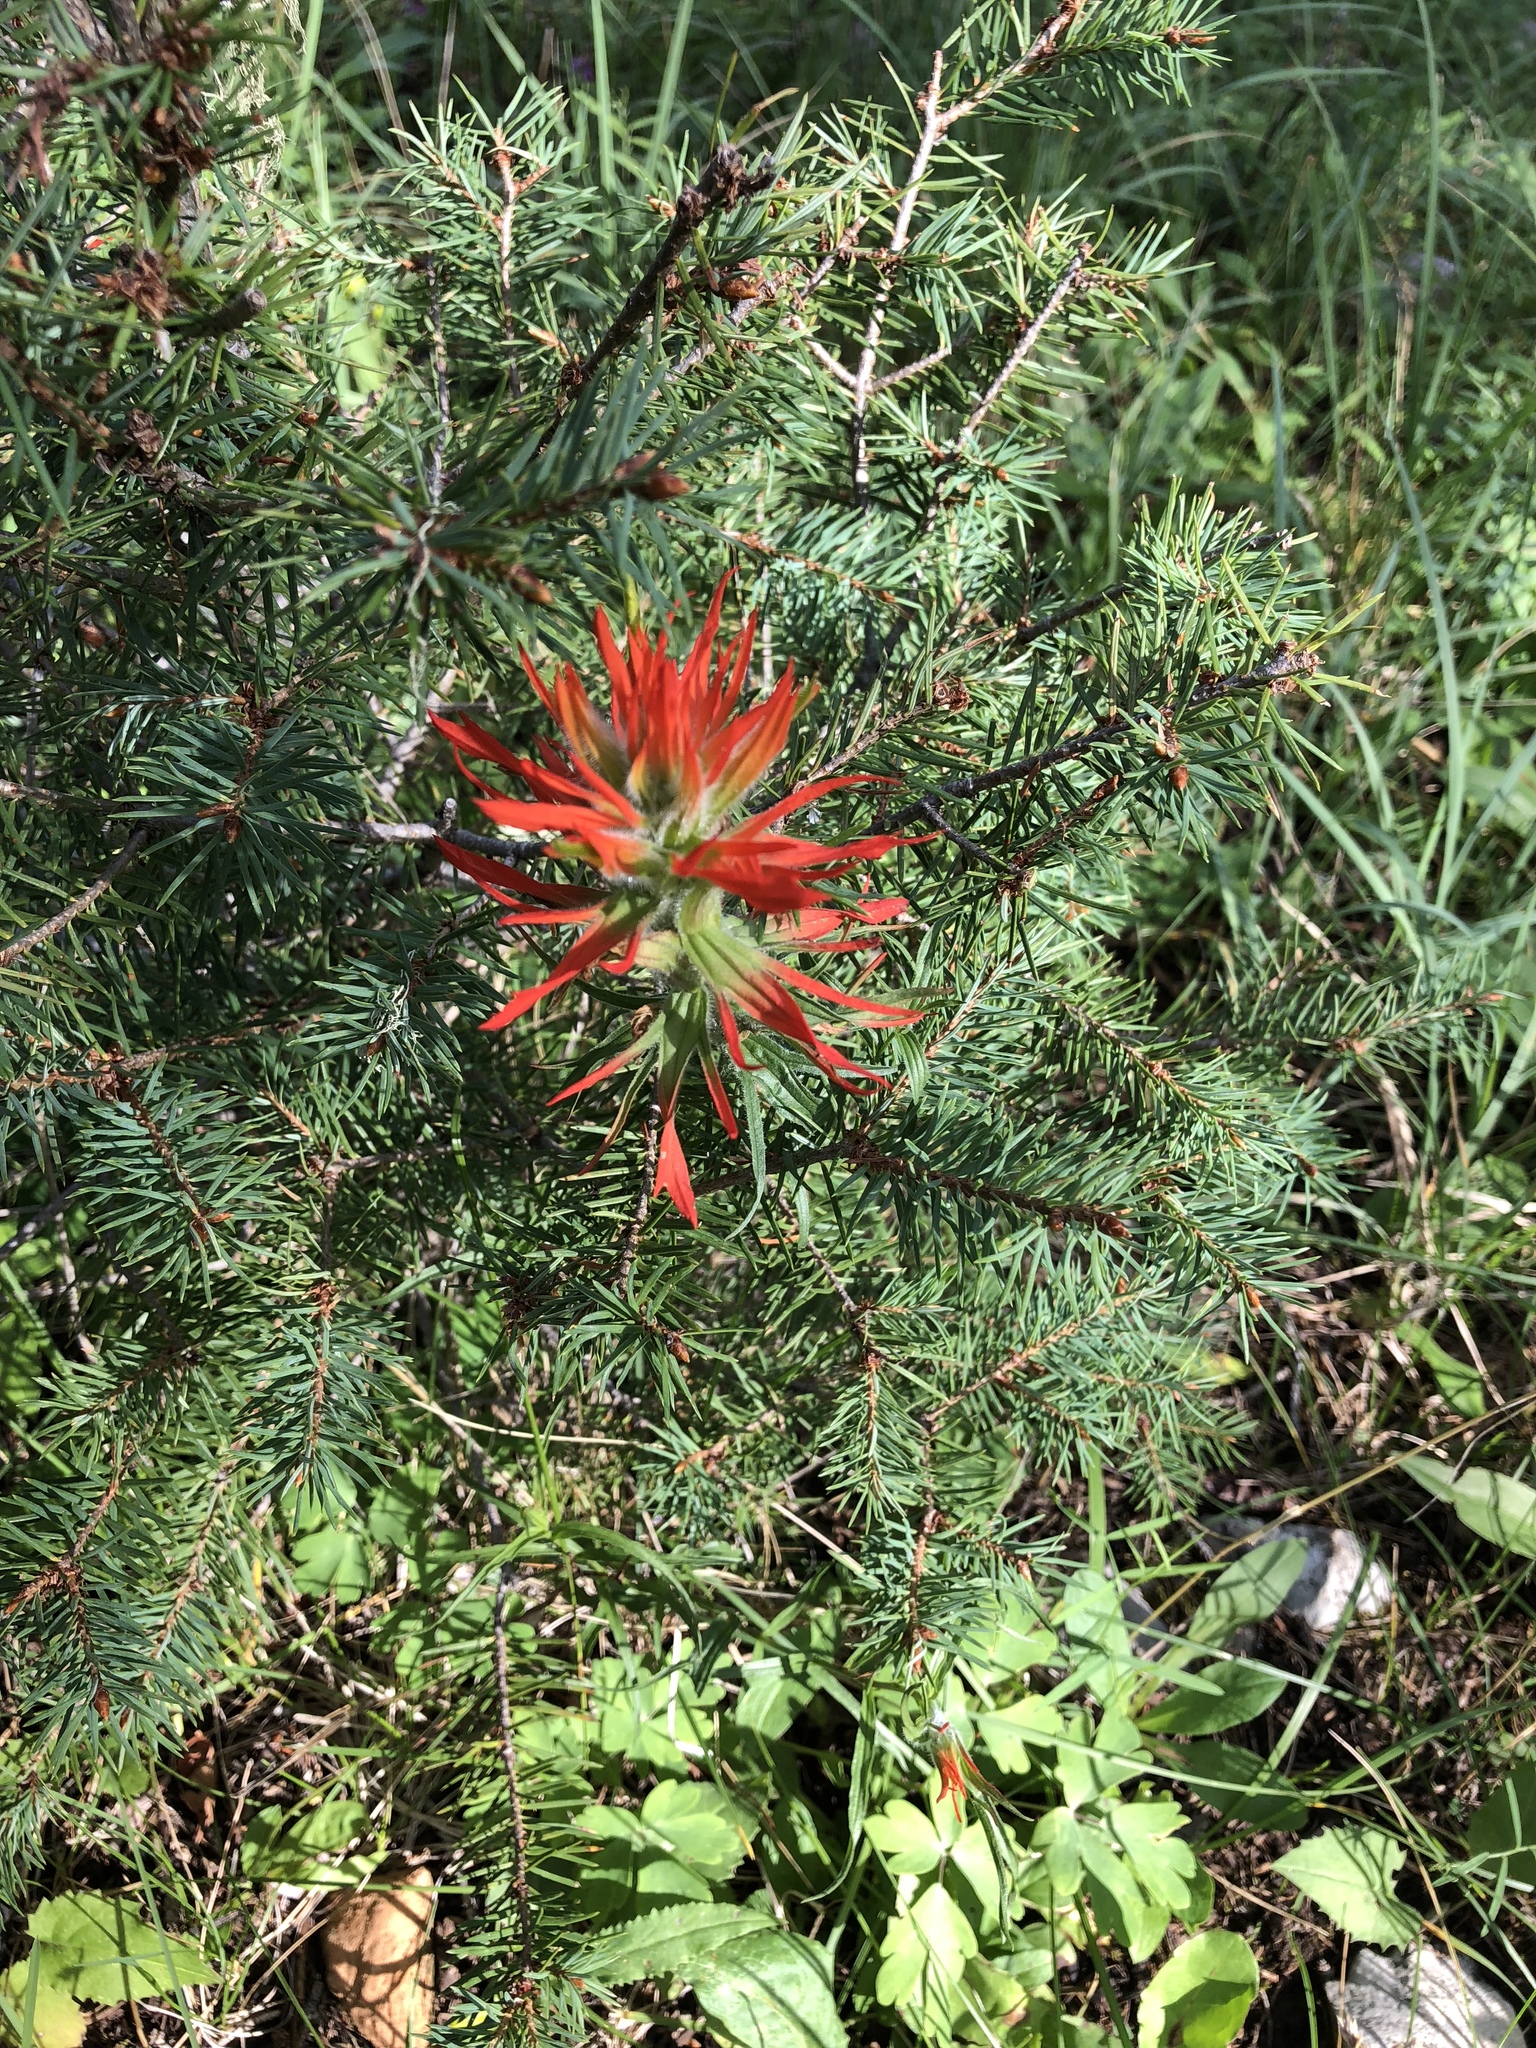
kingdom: Plantae
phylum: Tracheophyta
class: Magnoliopsida
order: Lamiales
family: Orobanchaceae
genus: Castilleja
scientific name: Castilleja wootonii
